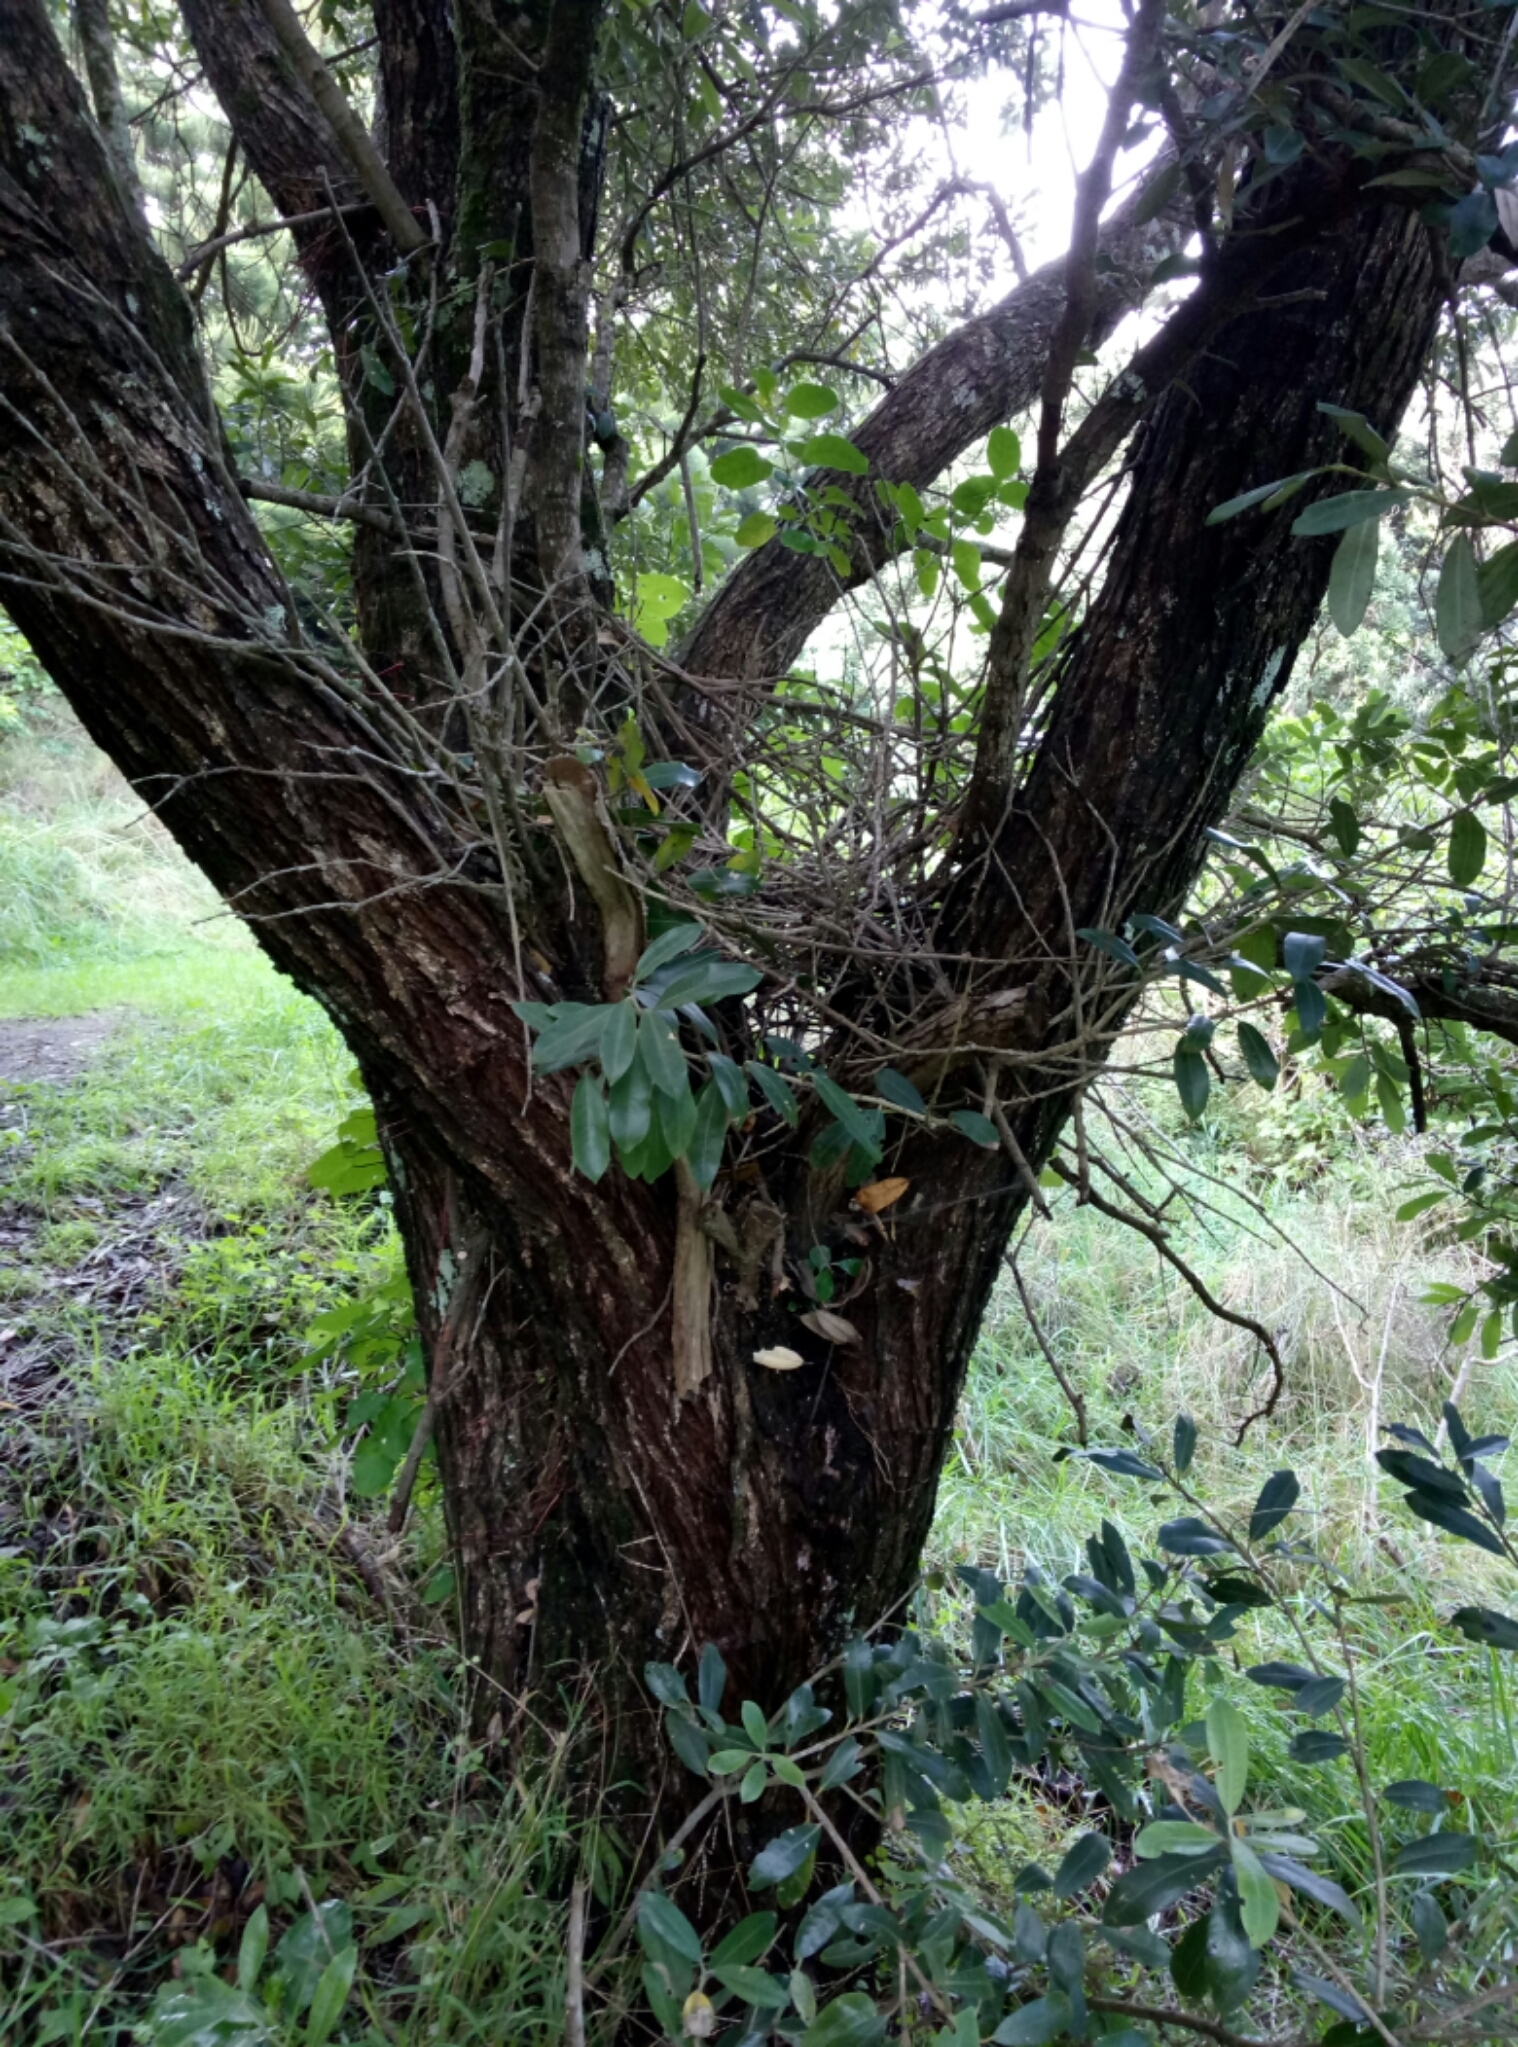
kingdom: Plantae
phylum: Tracheophyta
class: Magnoliopsida
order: Myrtales
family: Myrtaceae
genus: Metrosideros
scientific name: Metrosideros excelsa
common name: New zealand christmastree
